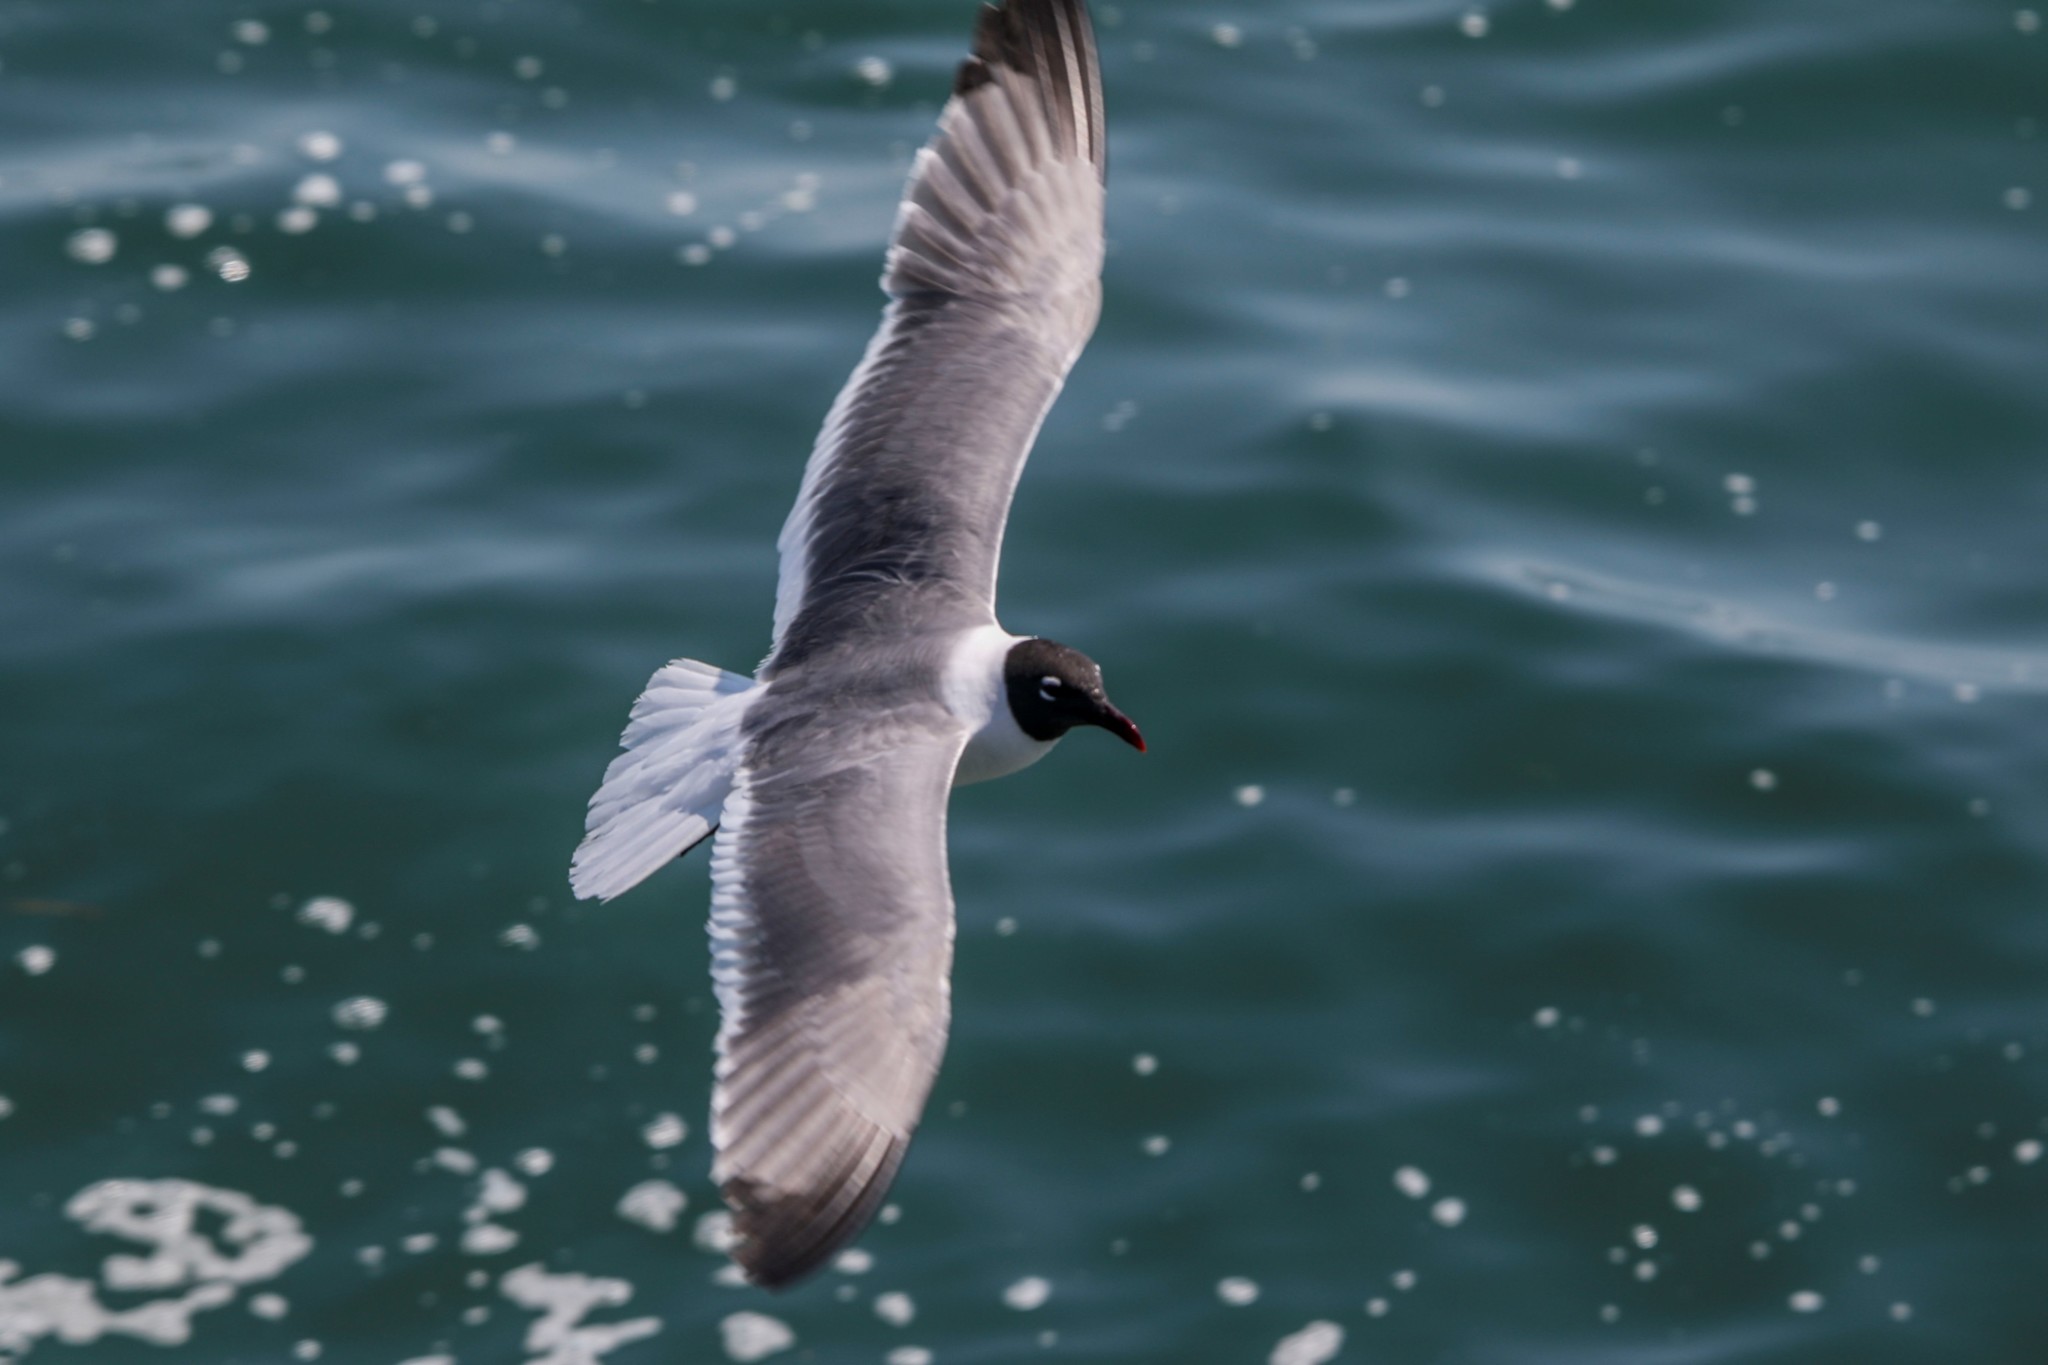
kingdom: Animalia
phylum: Chordata
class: Aves
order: Charadriiformes
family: Laridae
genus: Leucophaeus
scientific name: Leucophaeus atricilla
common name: Laughing gull
